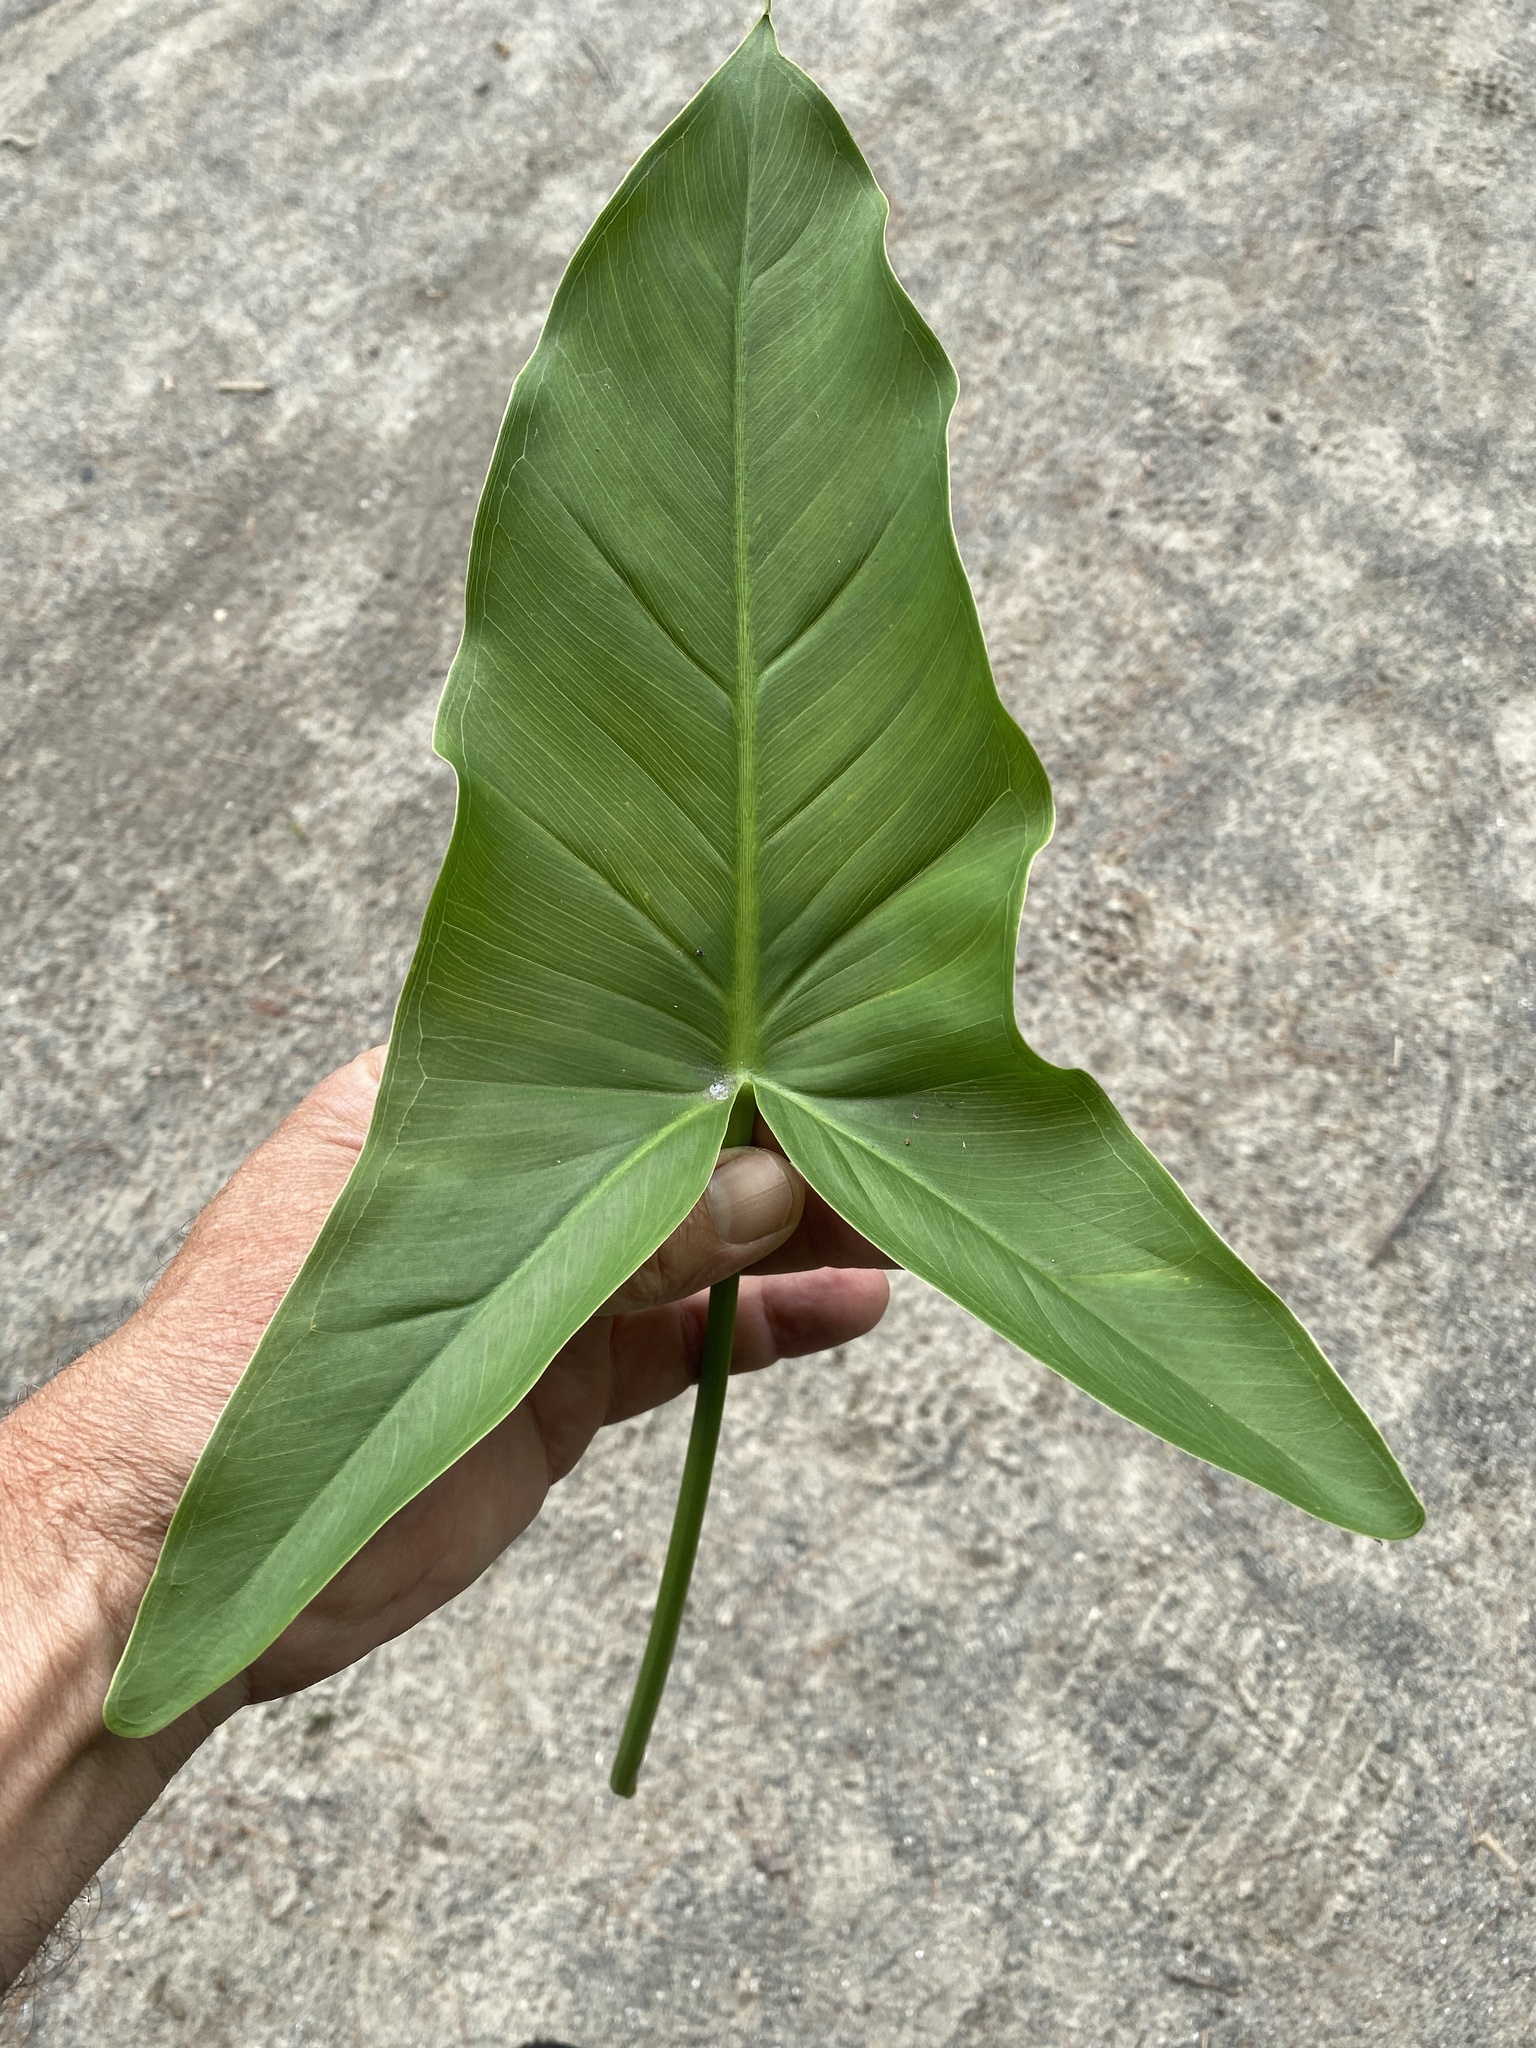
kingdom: Plantae
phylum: Tracheophyta
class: Liliopsida
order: Alismatales
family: Araceae
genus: Peltandra
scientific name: Peltandra virginica
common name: Arrow arum
